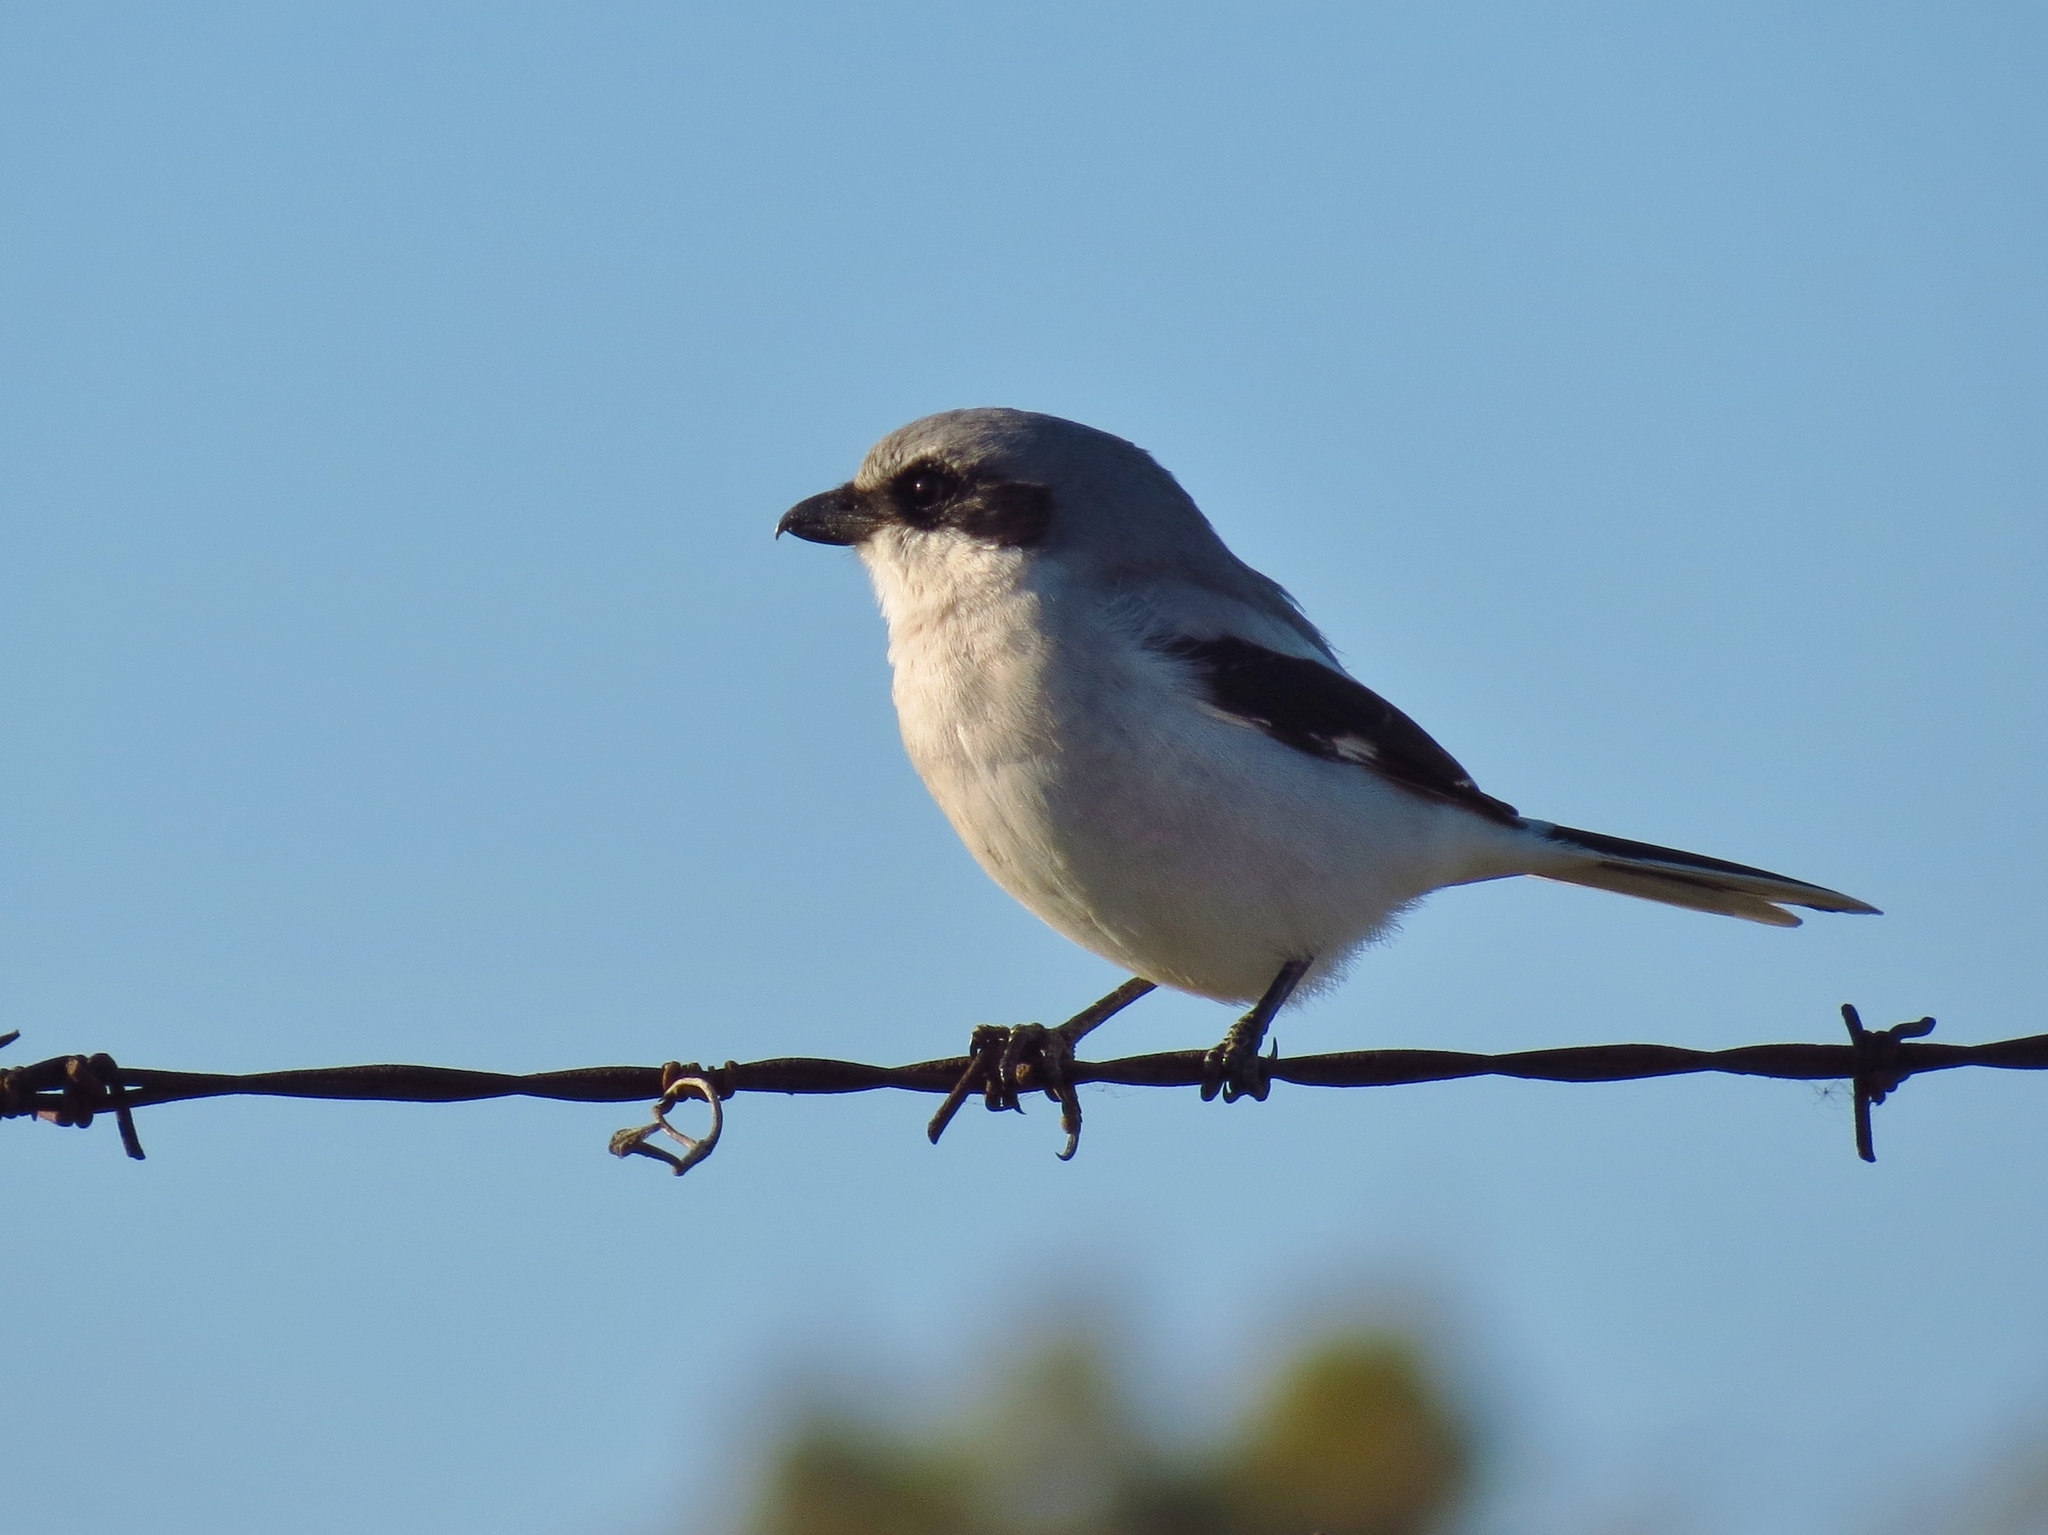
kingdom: Animalia
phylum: Chordata
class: Aves
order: Passeriformes
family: Laniidae
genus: Lanius
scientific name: Lanius ludovicianus
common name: Loggerhead shrike
